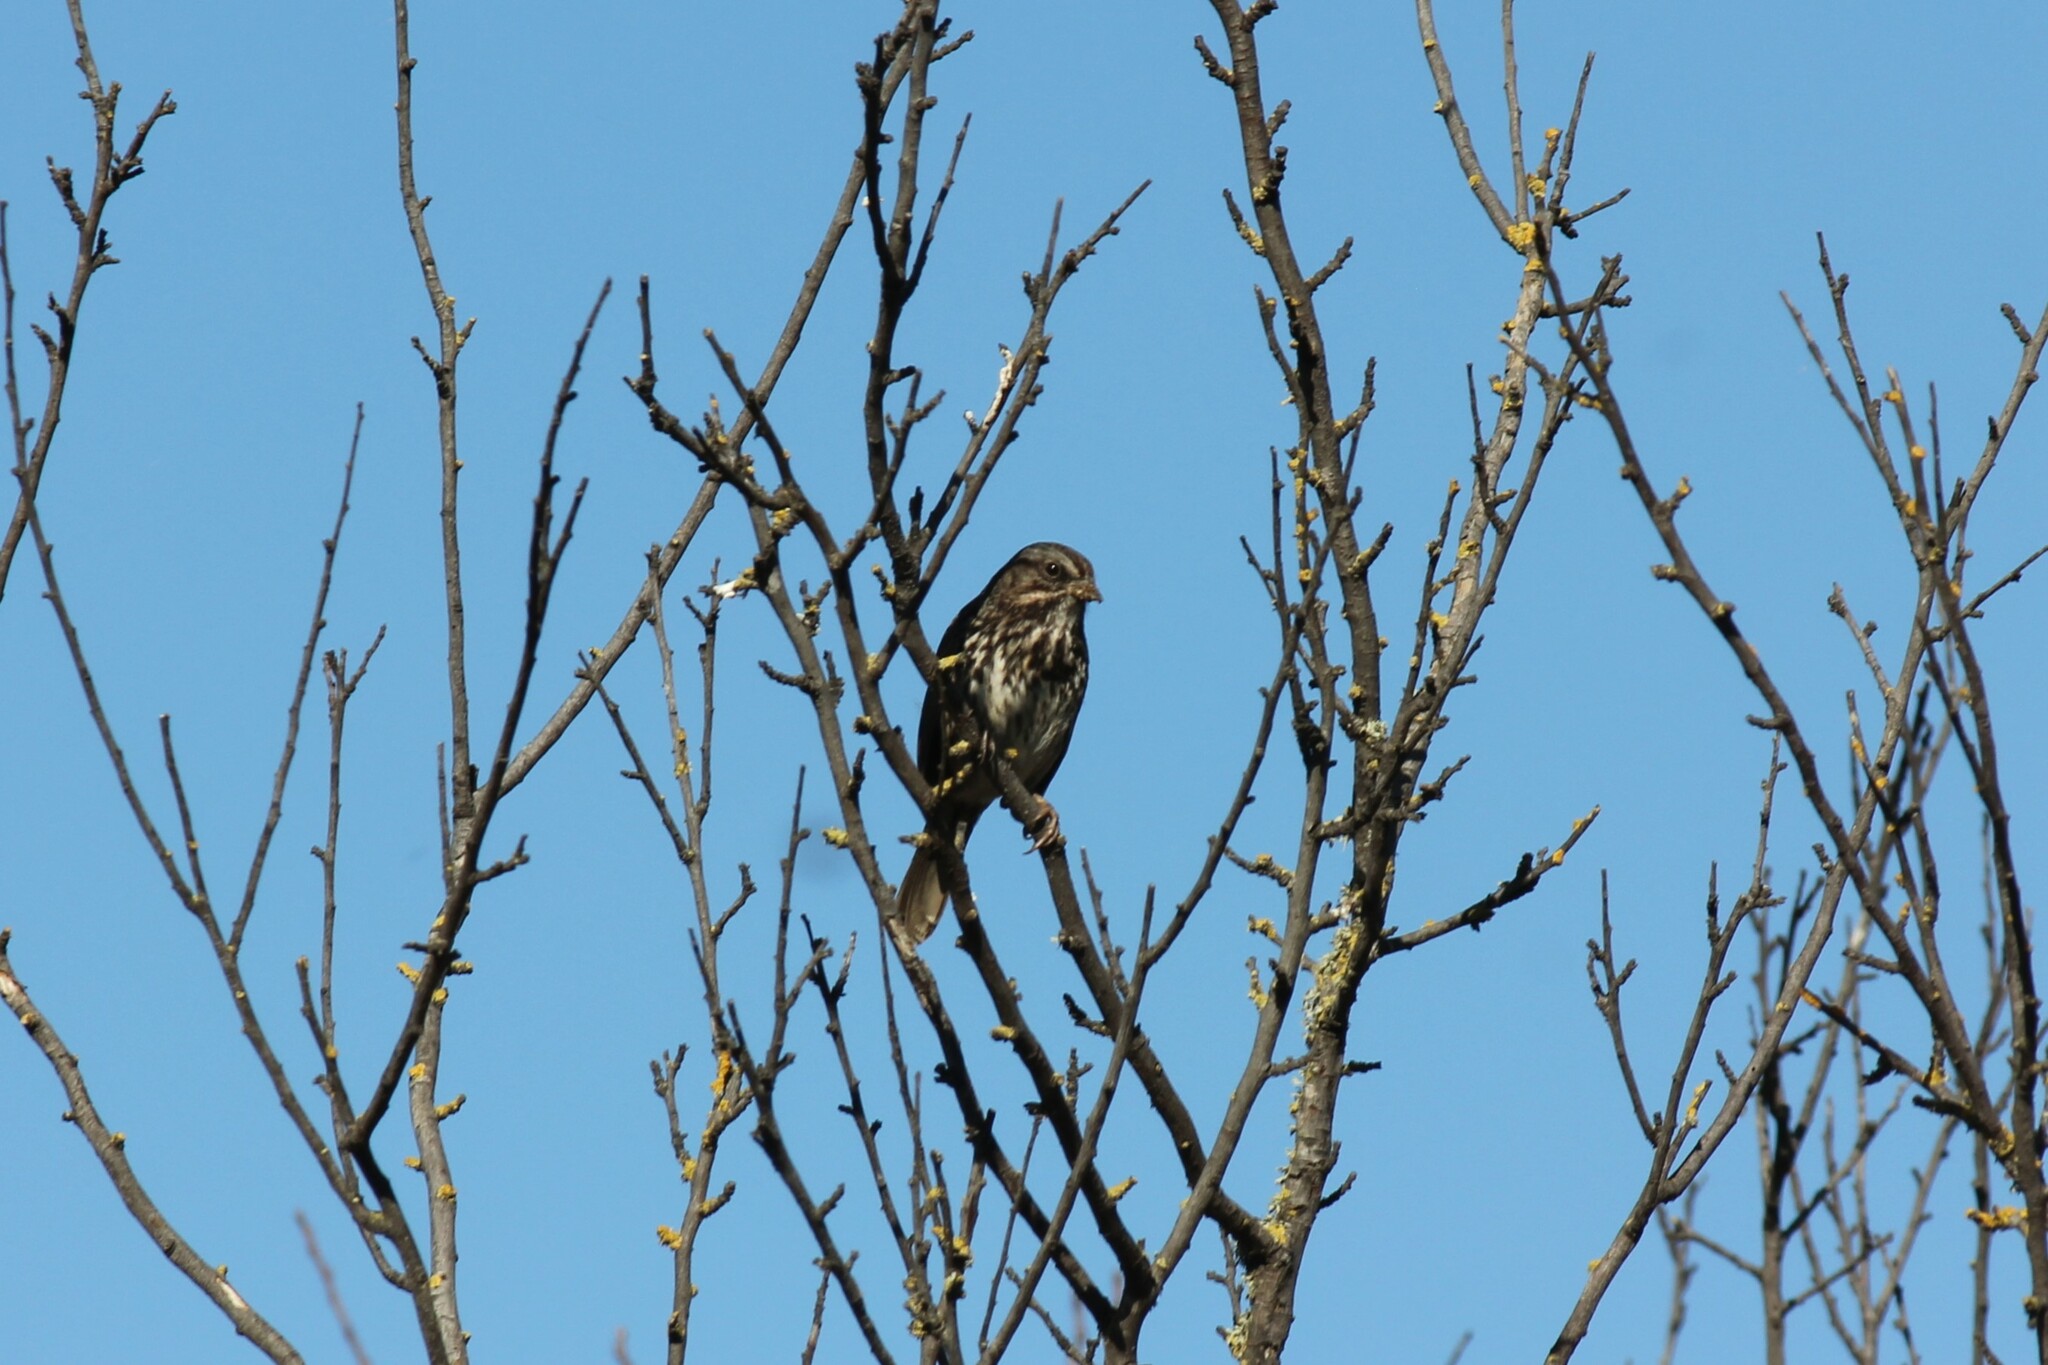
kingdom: Animalia
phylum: Chordata
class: Aves
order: Passeriformes
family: Passerellidae
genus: Melospiza
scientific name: Melospiza melodia
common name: Song sparrow
